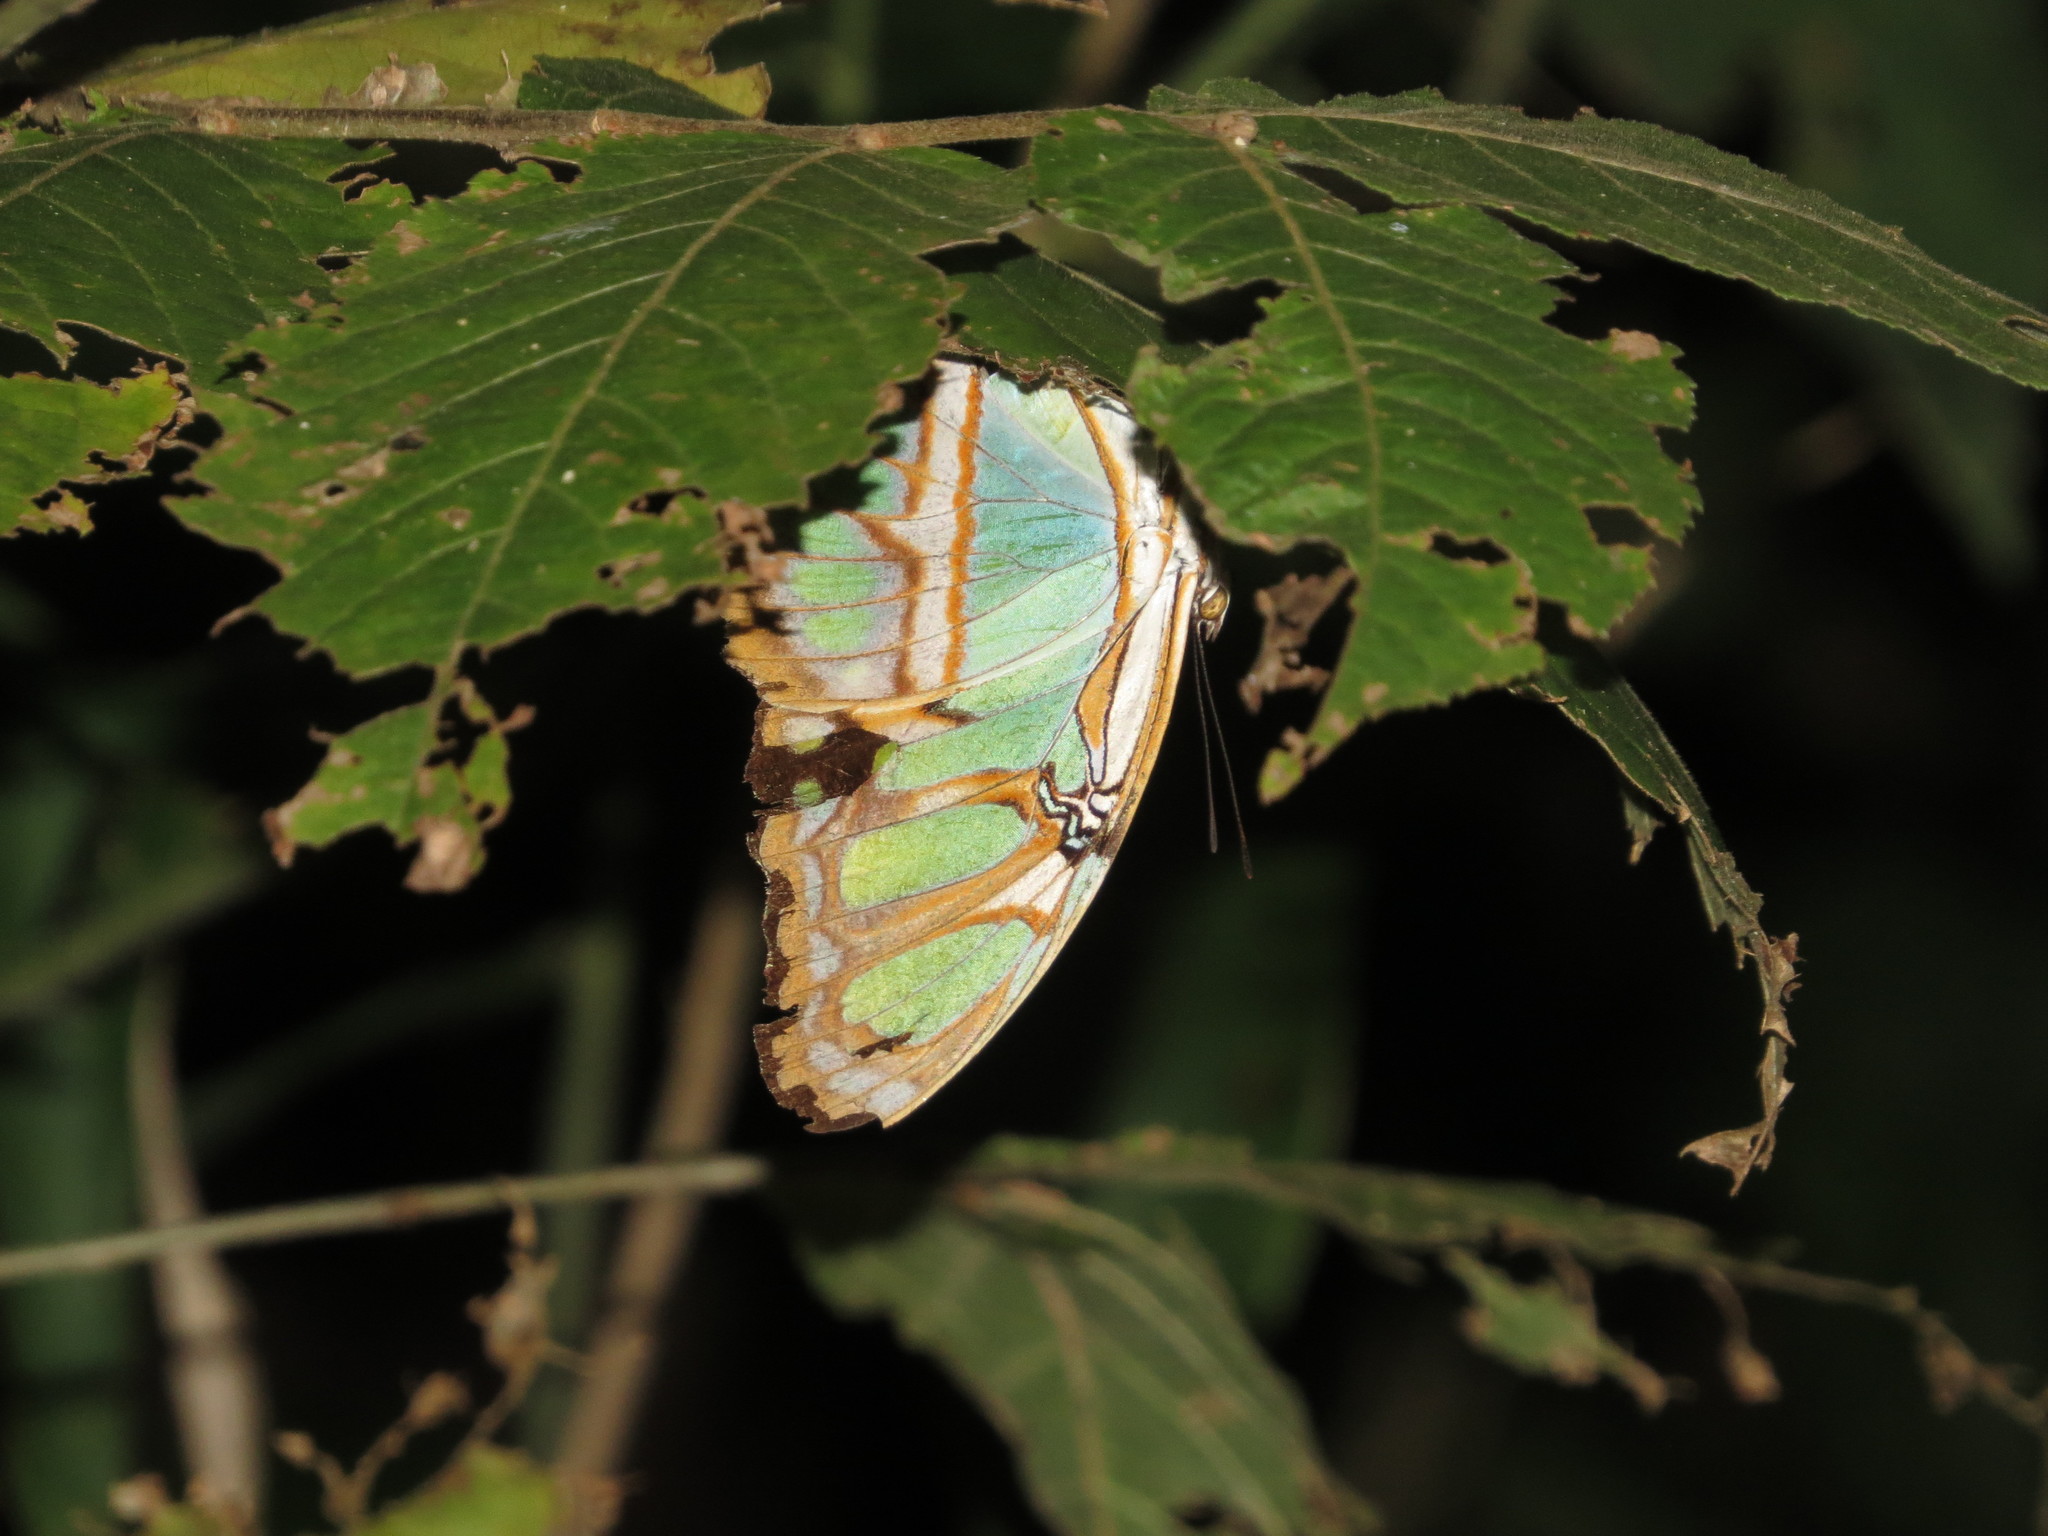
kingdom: Animalia
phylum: Arthropoda
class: Insecta
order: Lepidoptera
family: Nymphalidae
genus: Siproeta
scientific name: Siproeta stelenes
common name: Malachite
